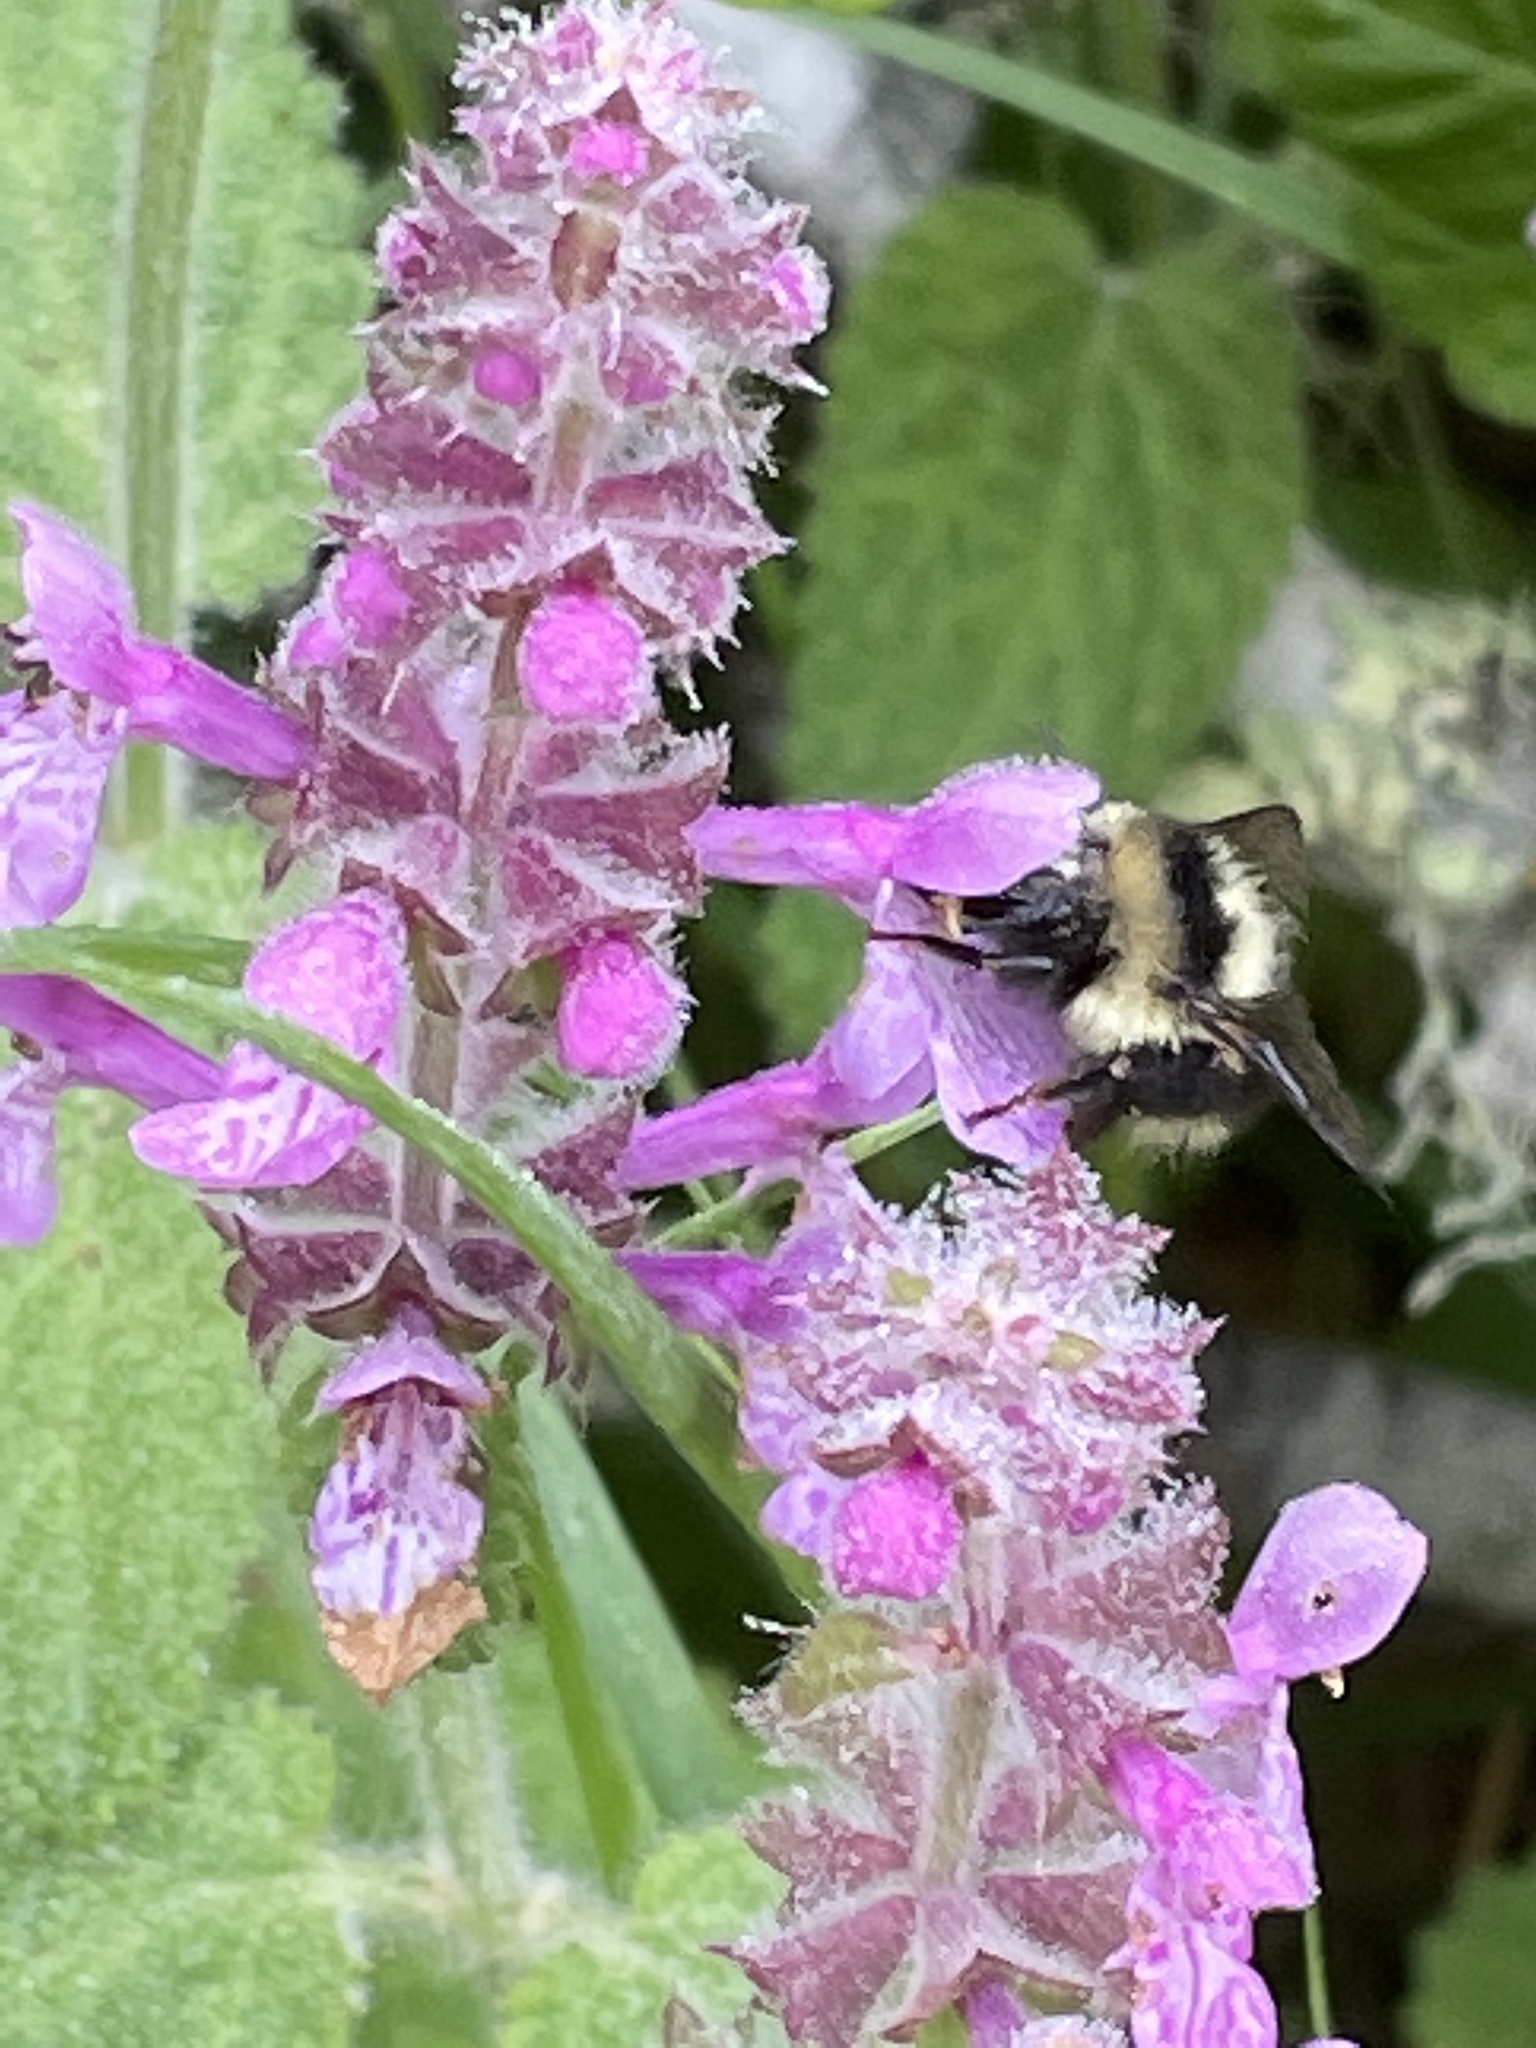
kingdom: Plantae
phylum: Tracheophyta
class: Magnoliopsida
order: Lamiales
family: Lamiaceae
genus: Stachys
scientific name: Stachys bullata
